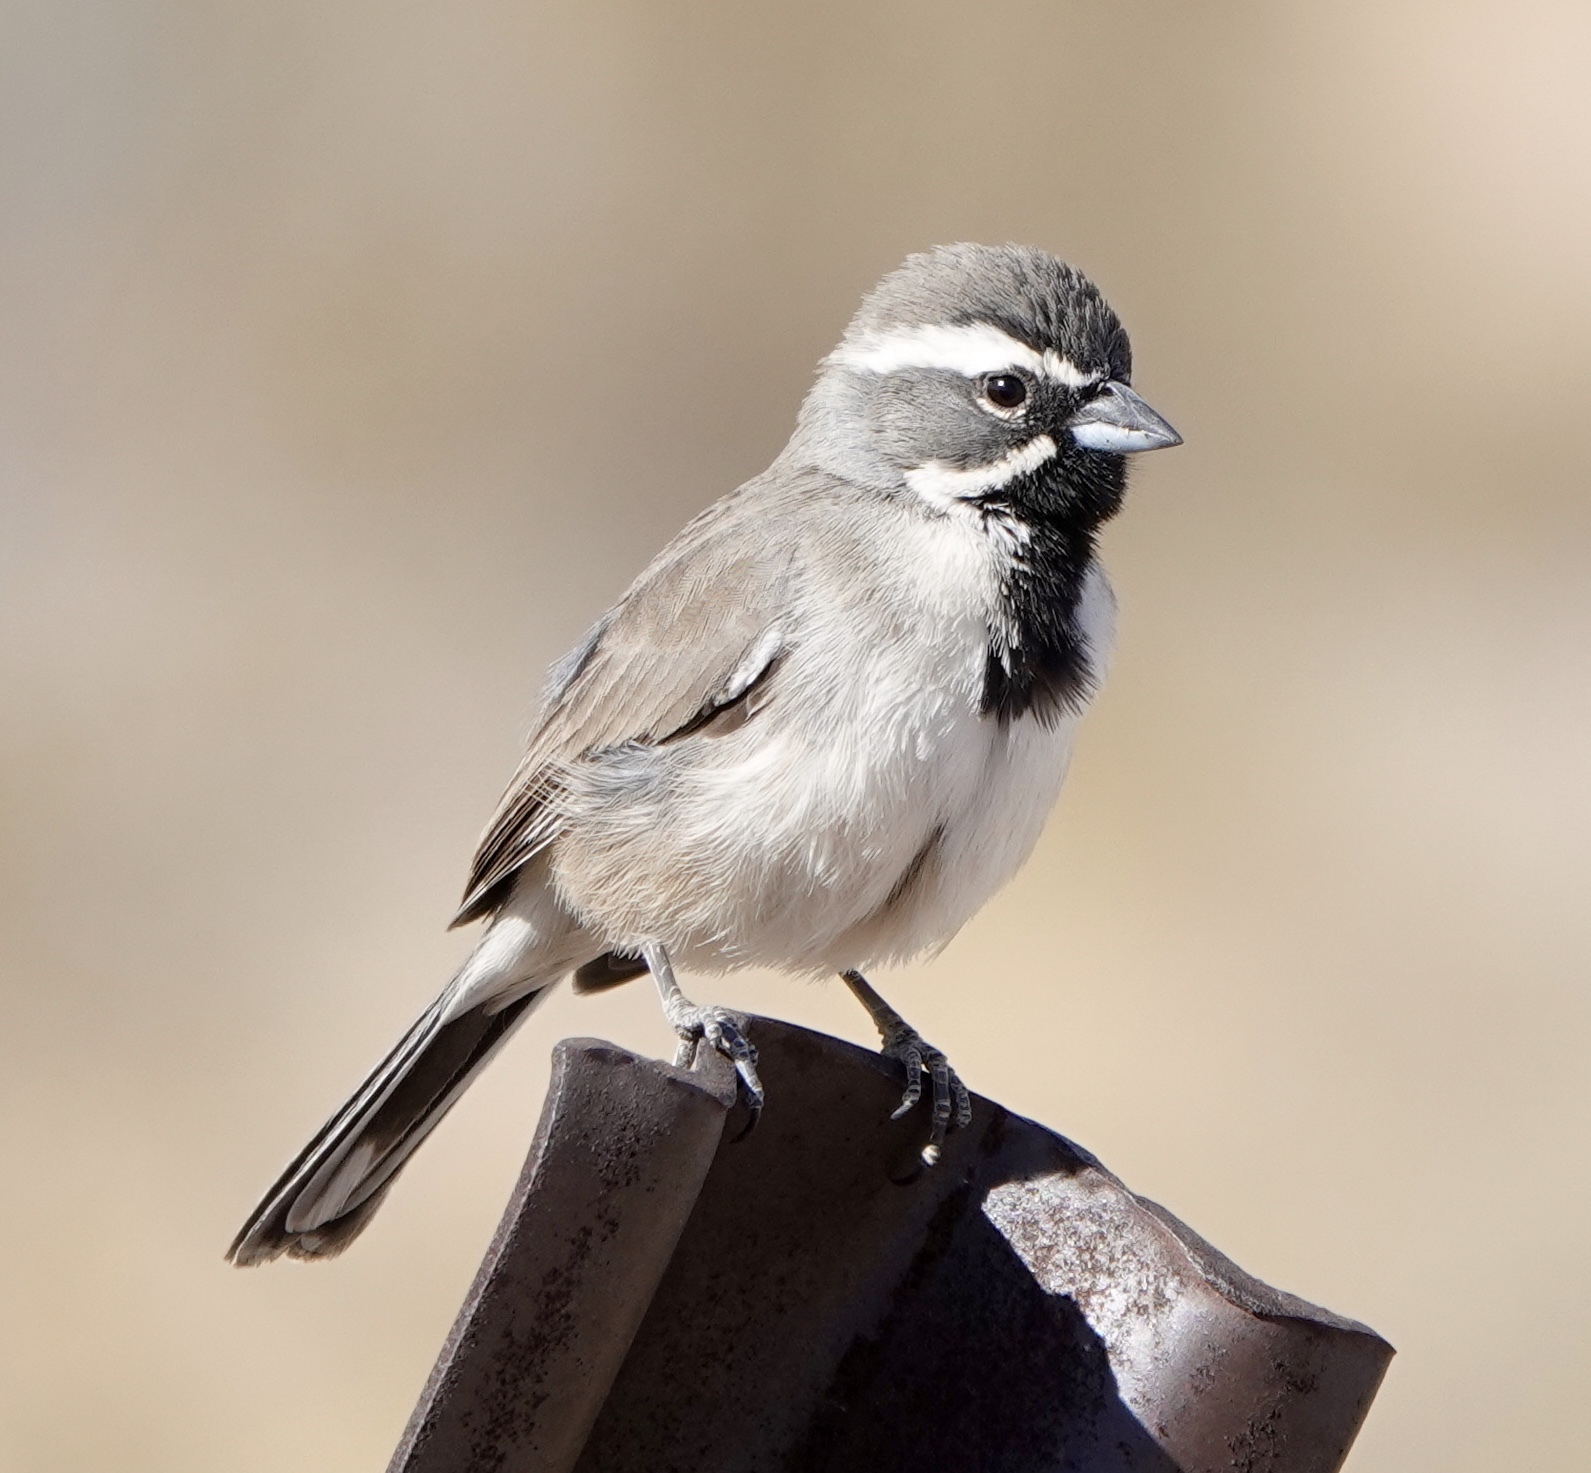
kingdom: Animalia
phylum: Chordata
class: Aves
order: Passeriformes
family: Passerellidae
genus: Amphispiza
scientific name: Amphispiza bilineata
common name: Black-throated sparrow
